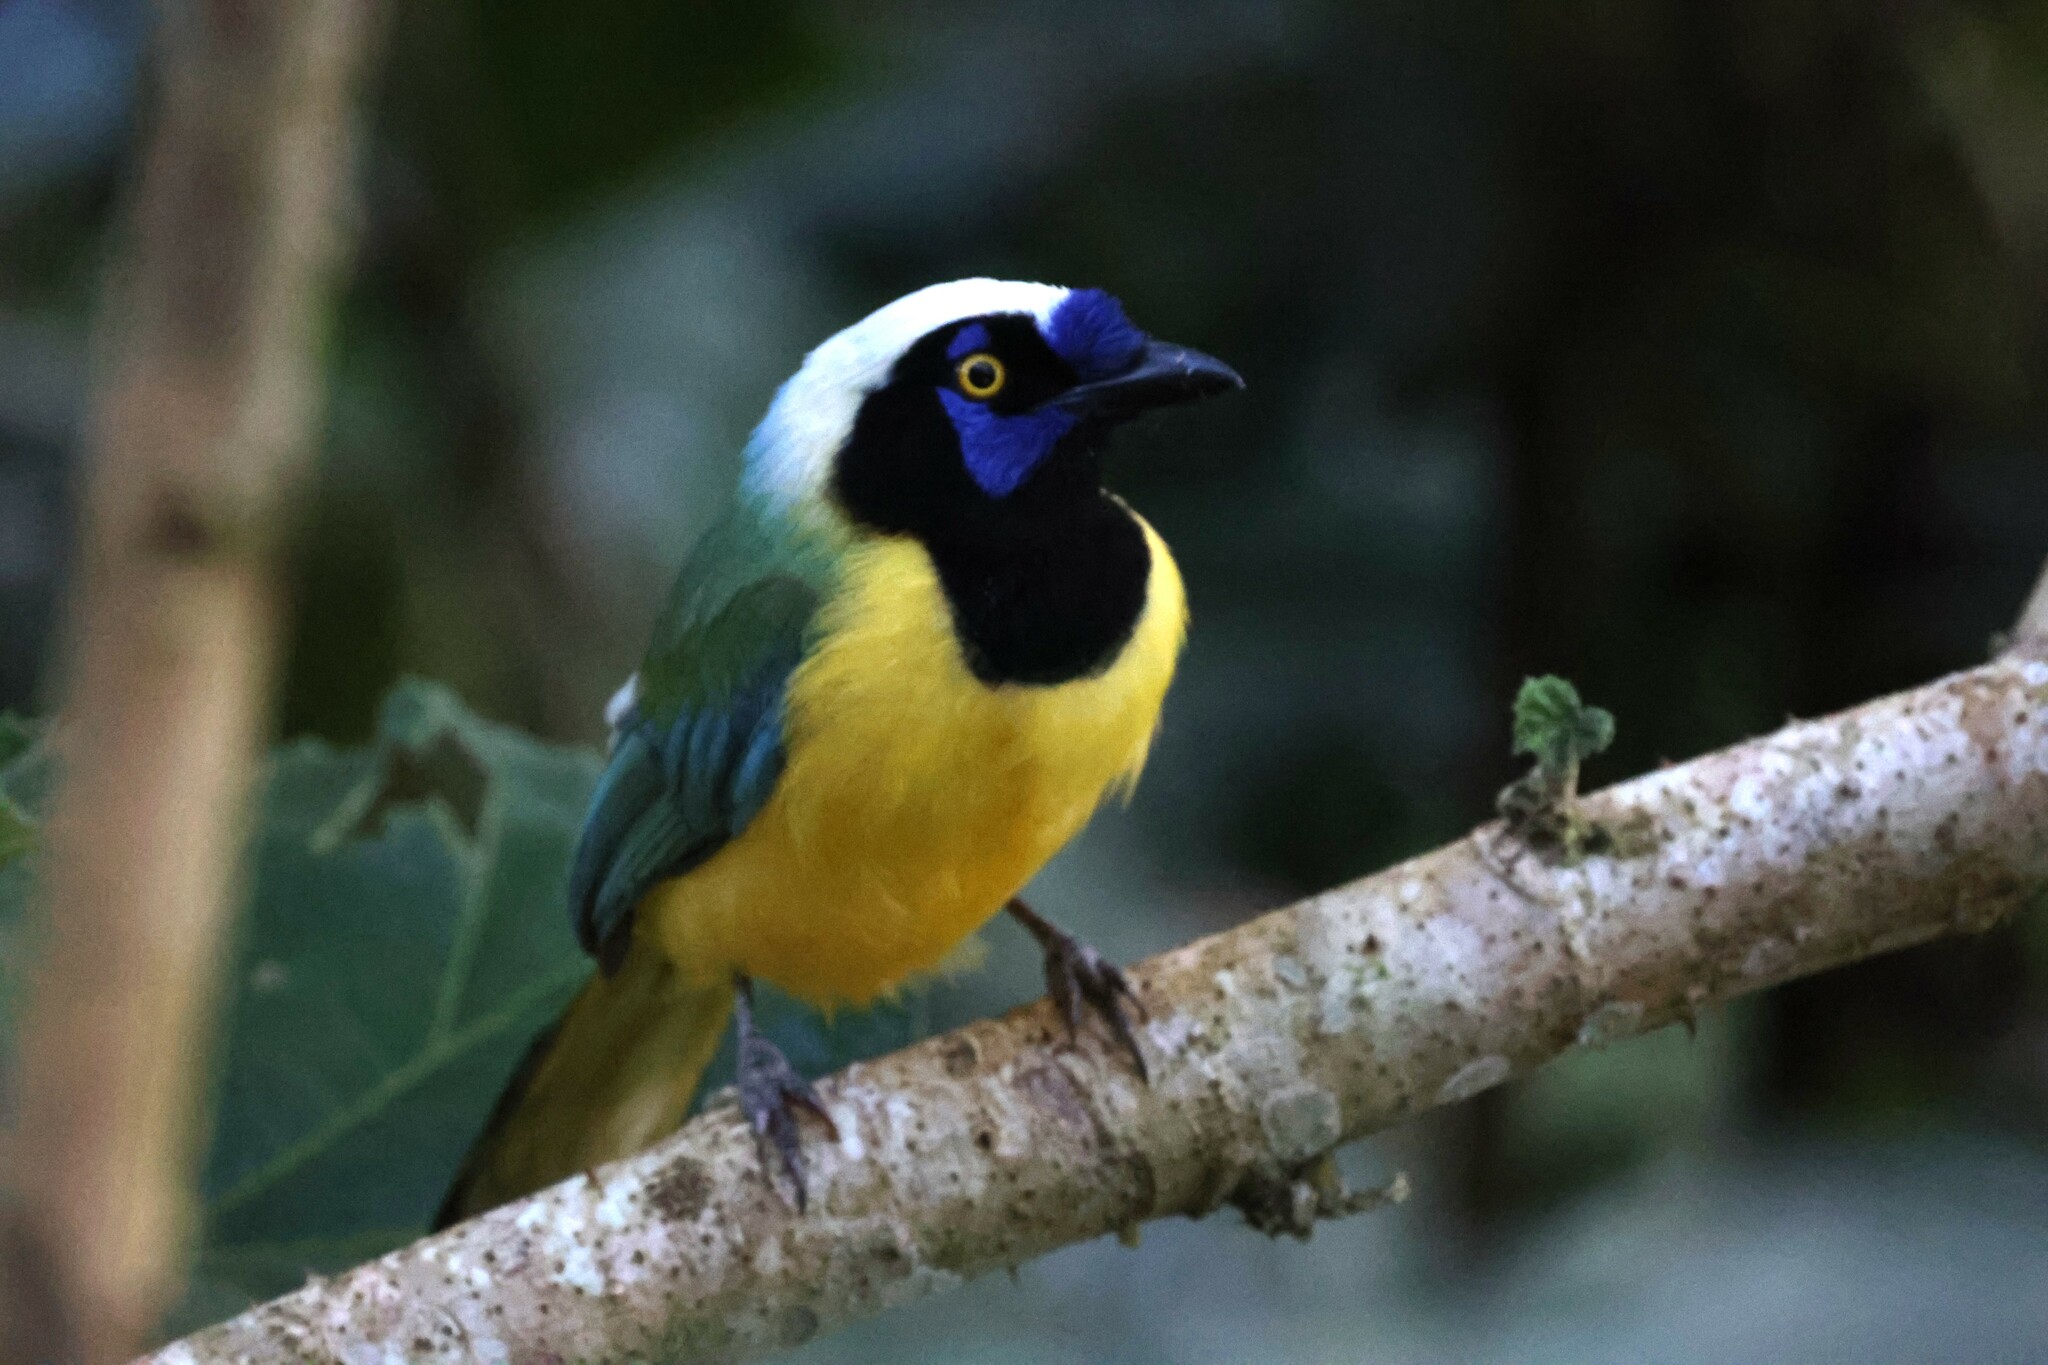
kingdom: Animalia
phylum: Chordata
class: Aves
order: Passeriformes
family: Corvidae
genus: Cyanocorax
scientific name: Cyanocorax yncas
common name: Green jay
